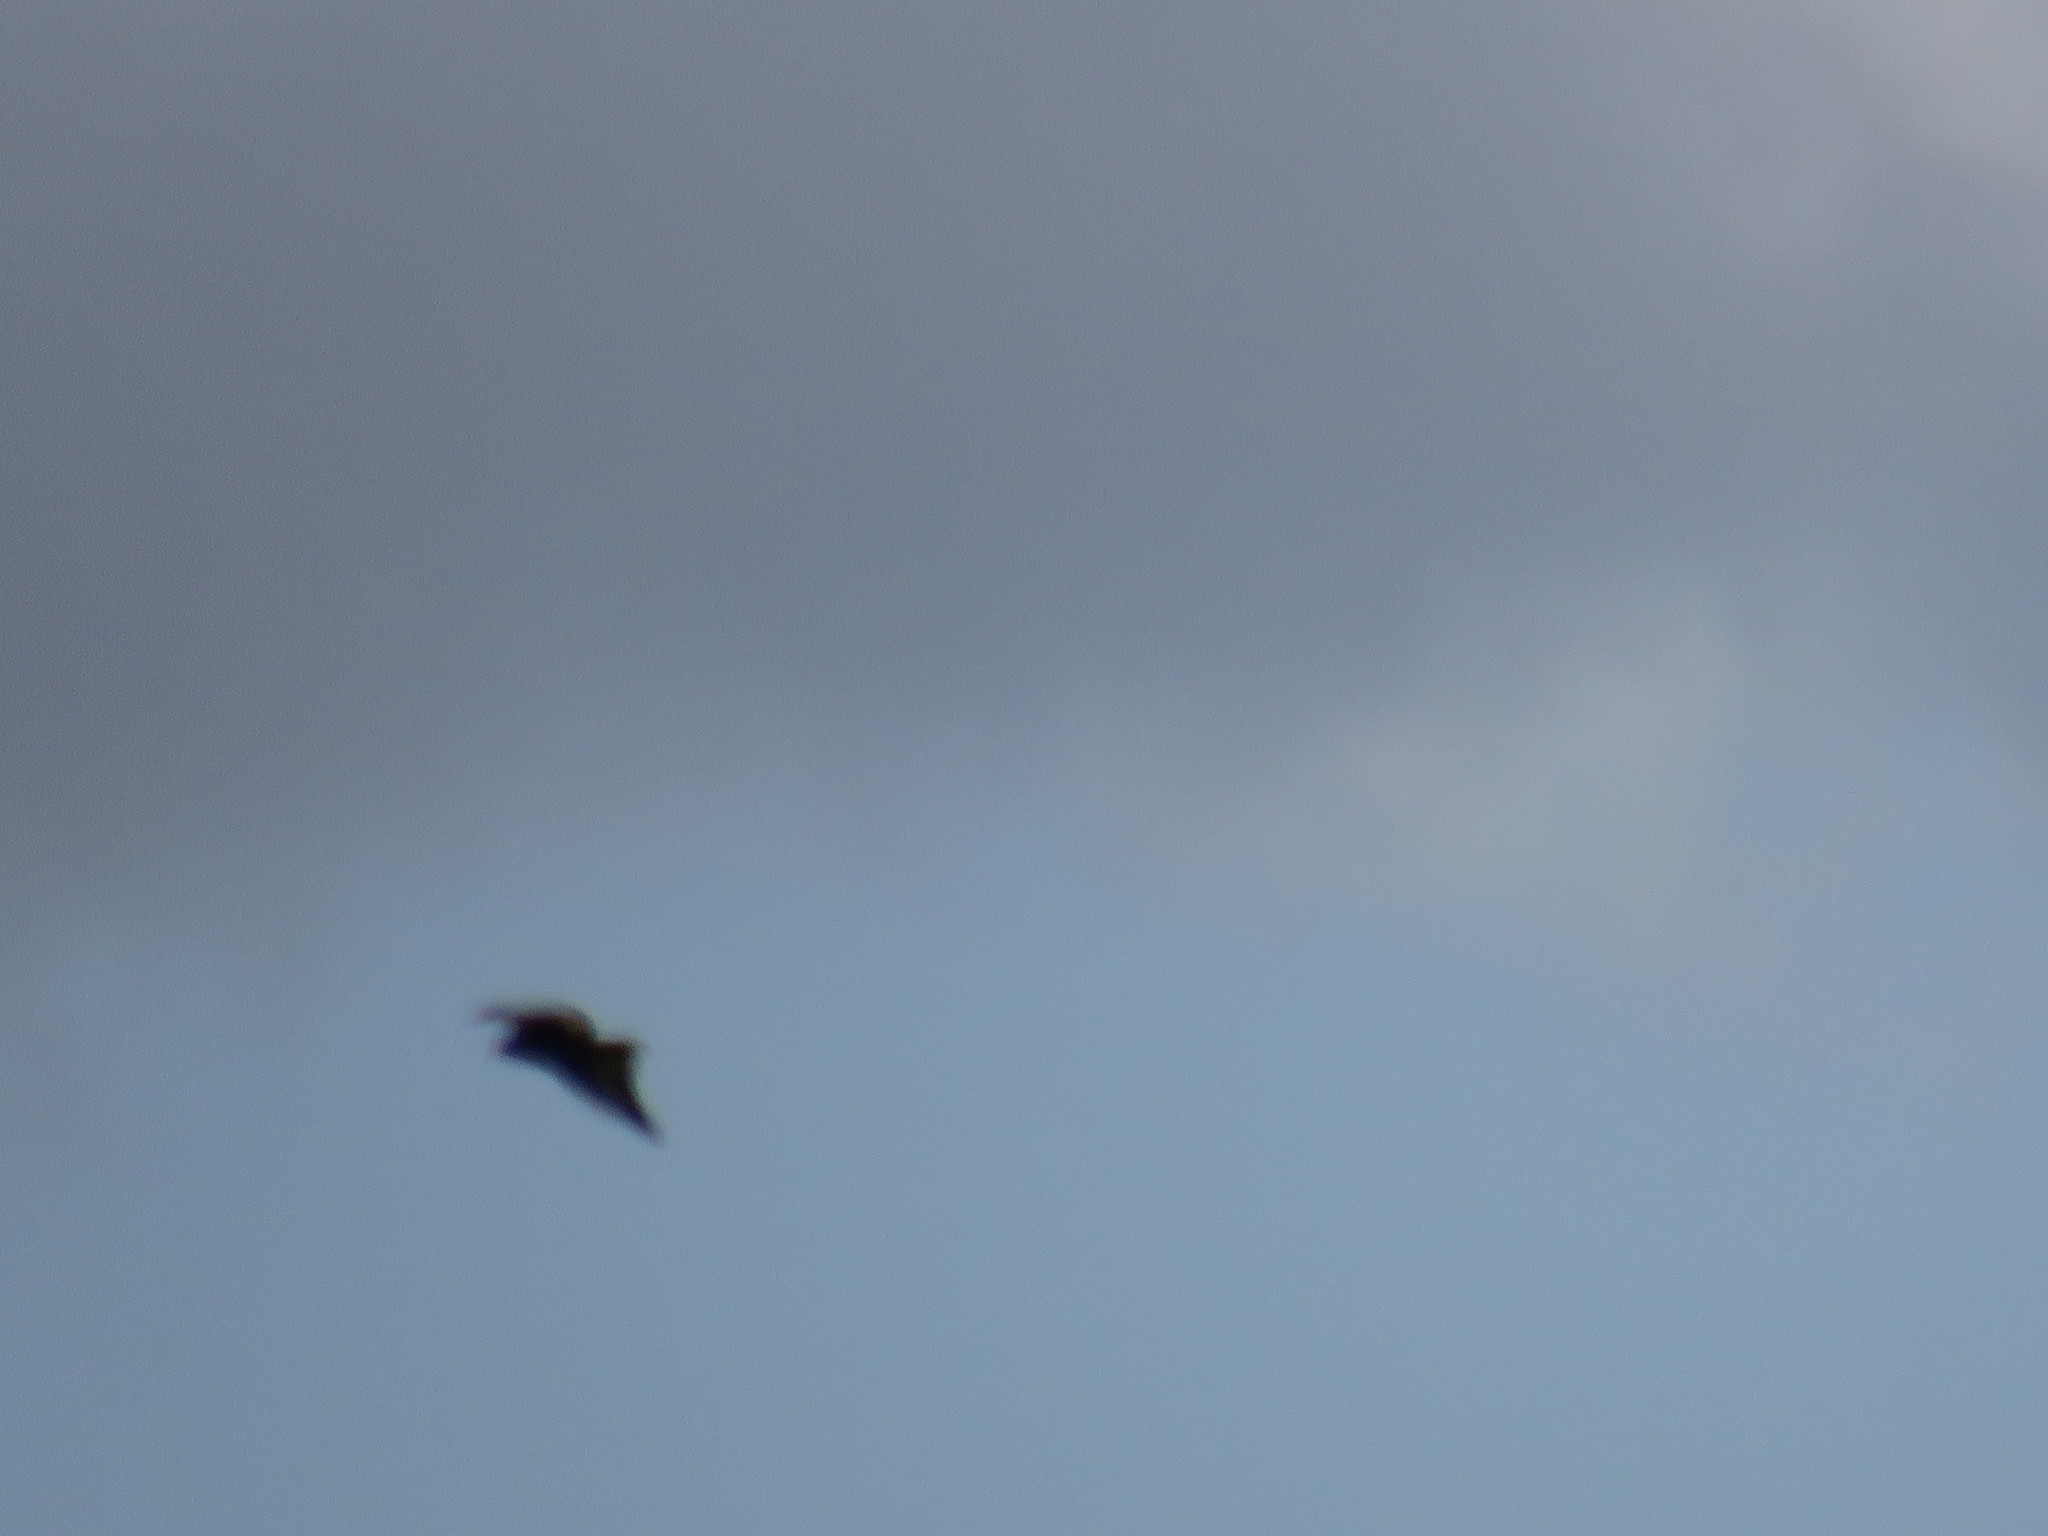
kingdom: Animalia
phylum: Chordata
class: Aves
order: Accipitriformes
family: Accipitridae
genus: Buteo
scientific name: Buteo rufofuscus
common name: Jackal buzzard
